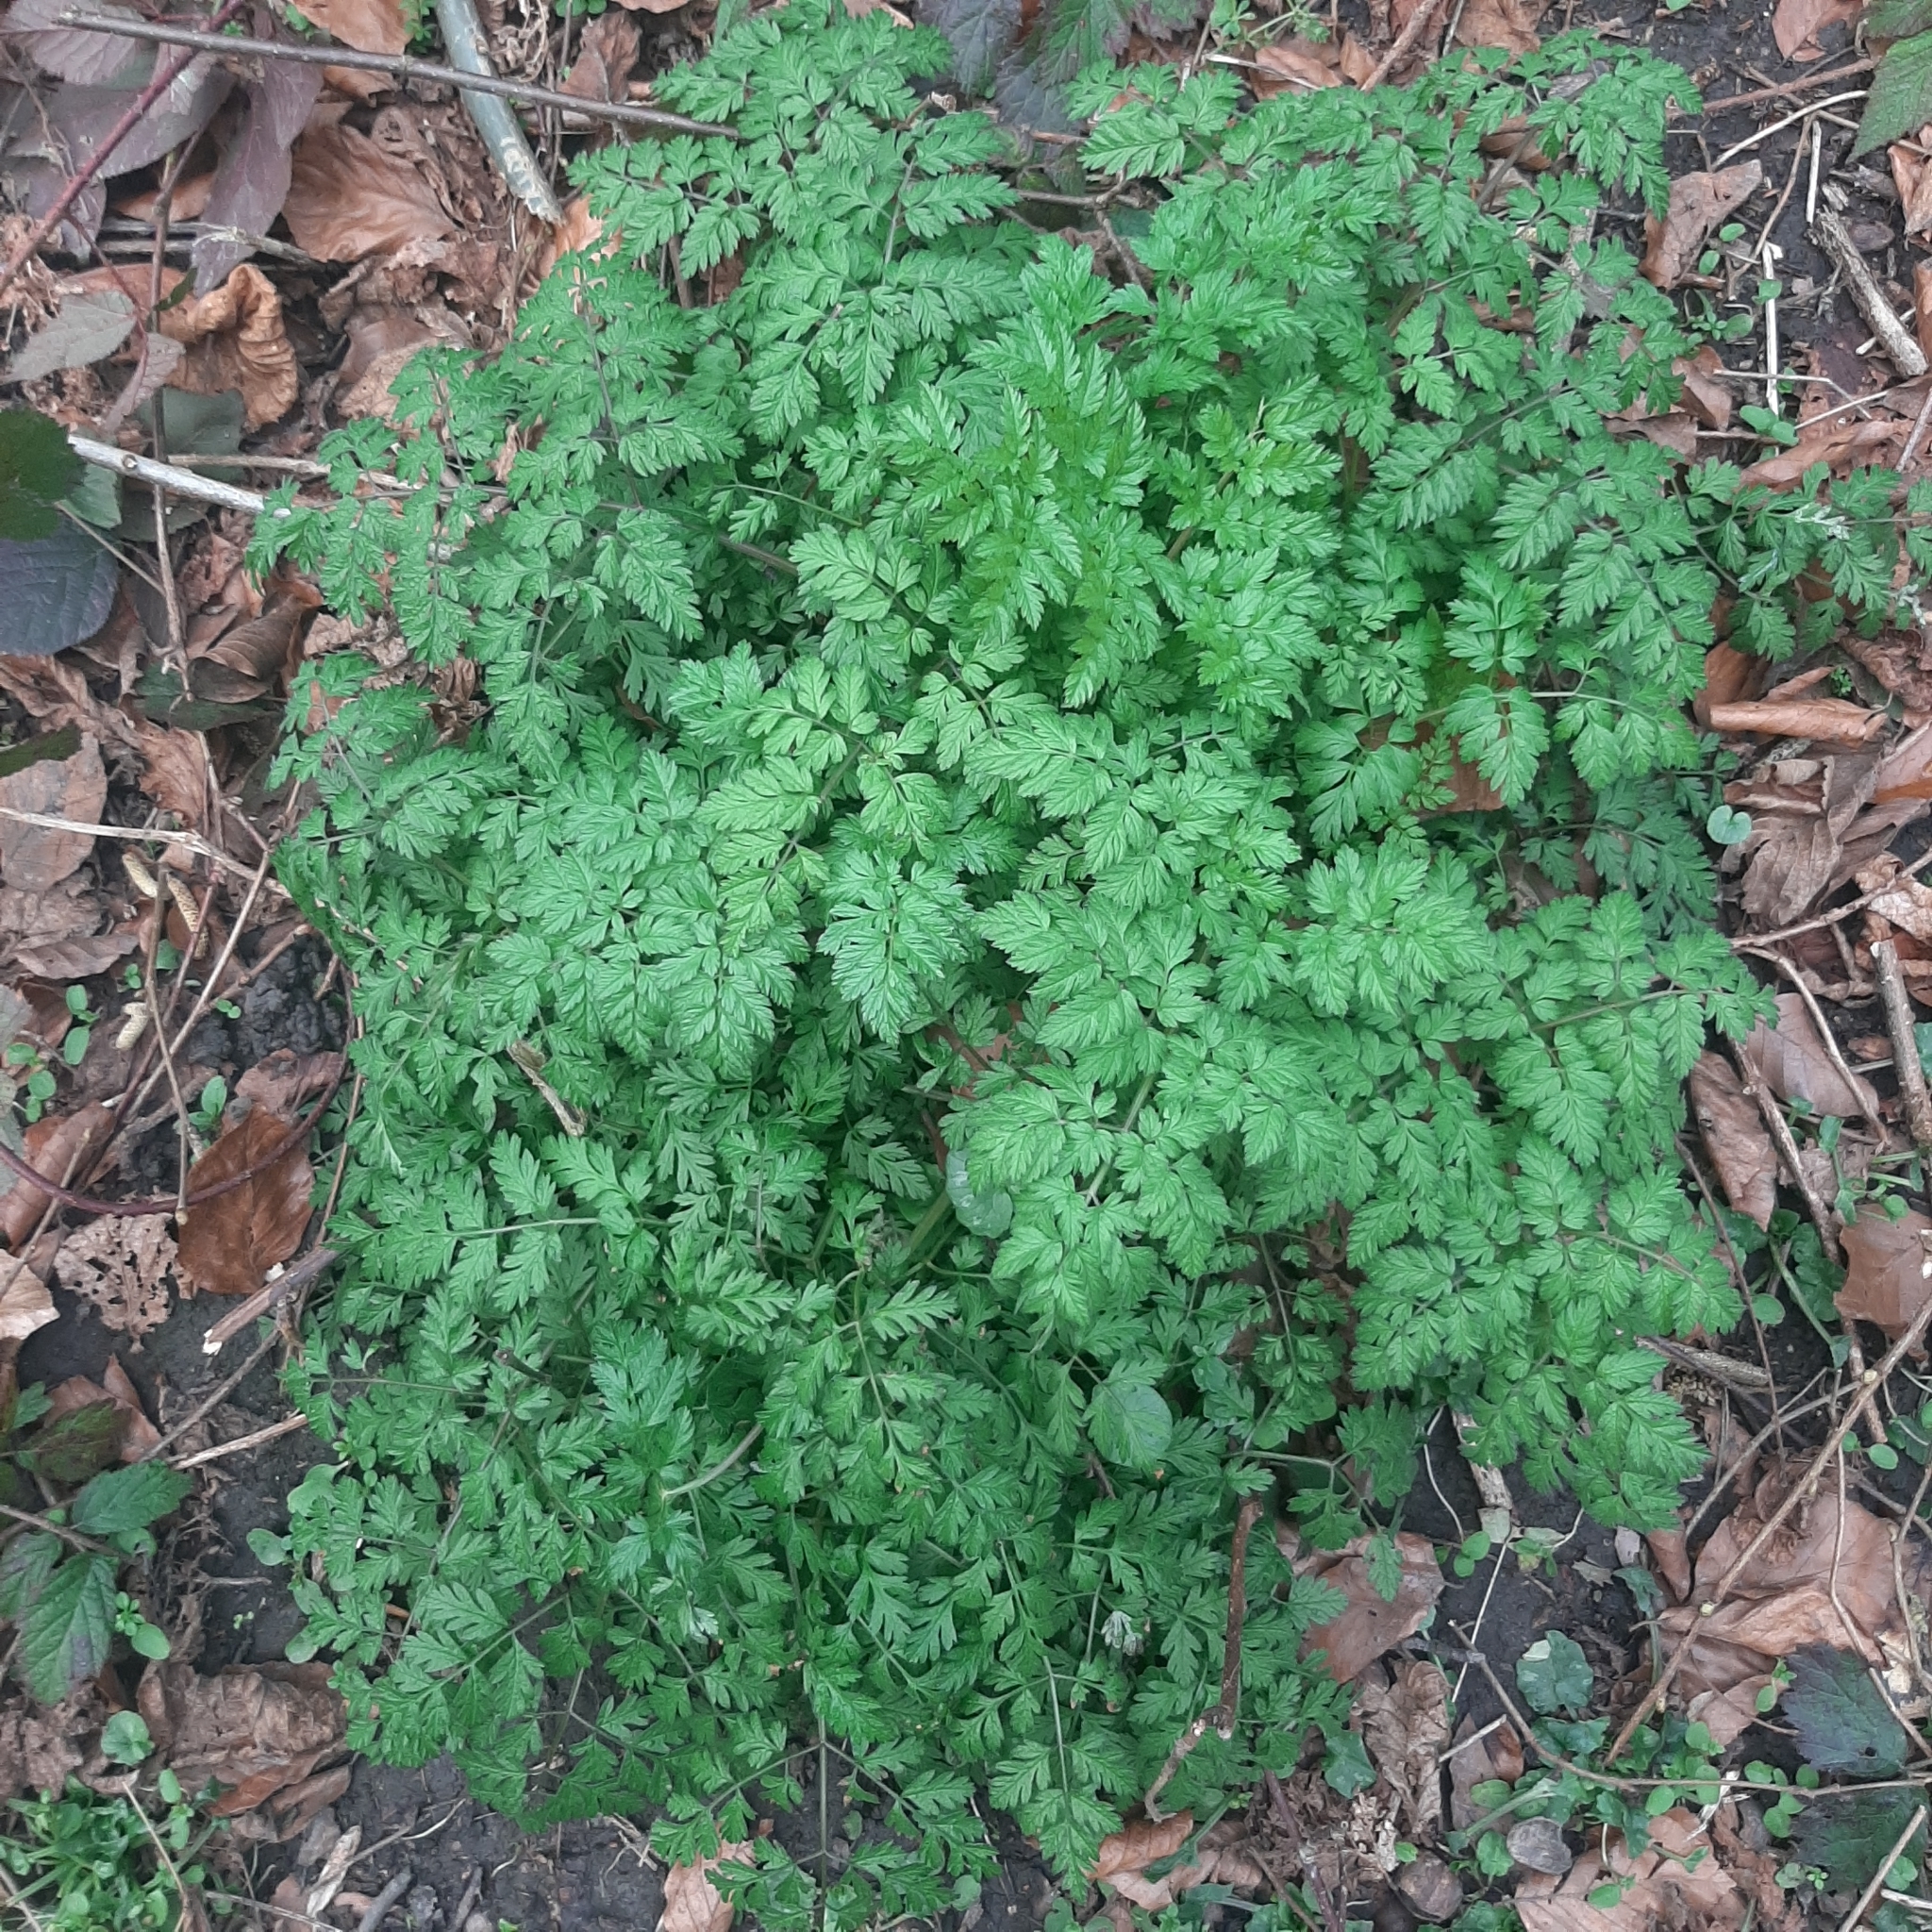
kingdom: Plantae
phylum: Tracheophyta
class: Magnoliopsida
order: Apiales
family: Apiaceae
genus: Anthriscus
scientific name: Anthriscus sylvestris
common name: Cow parsley
